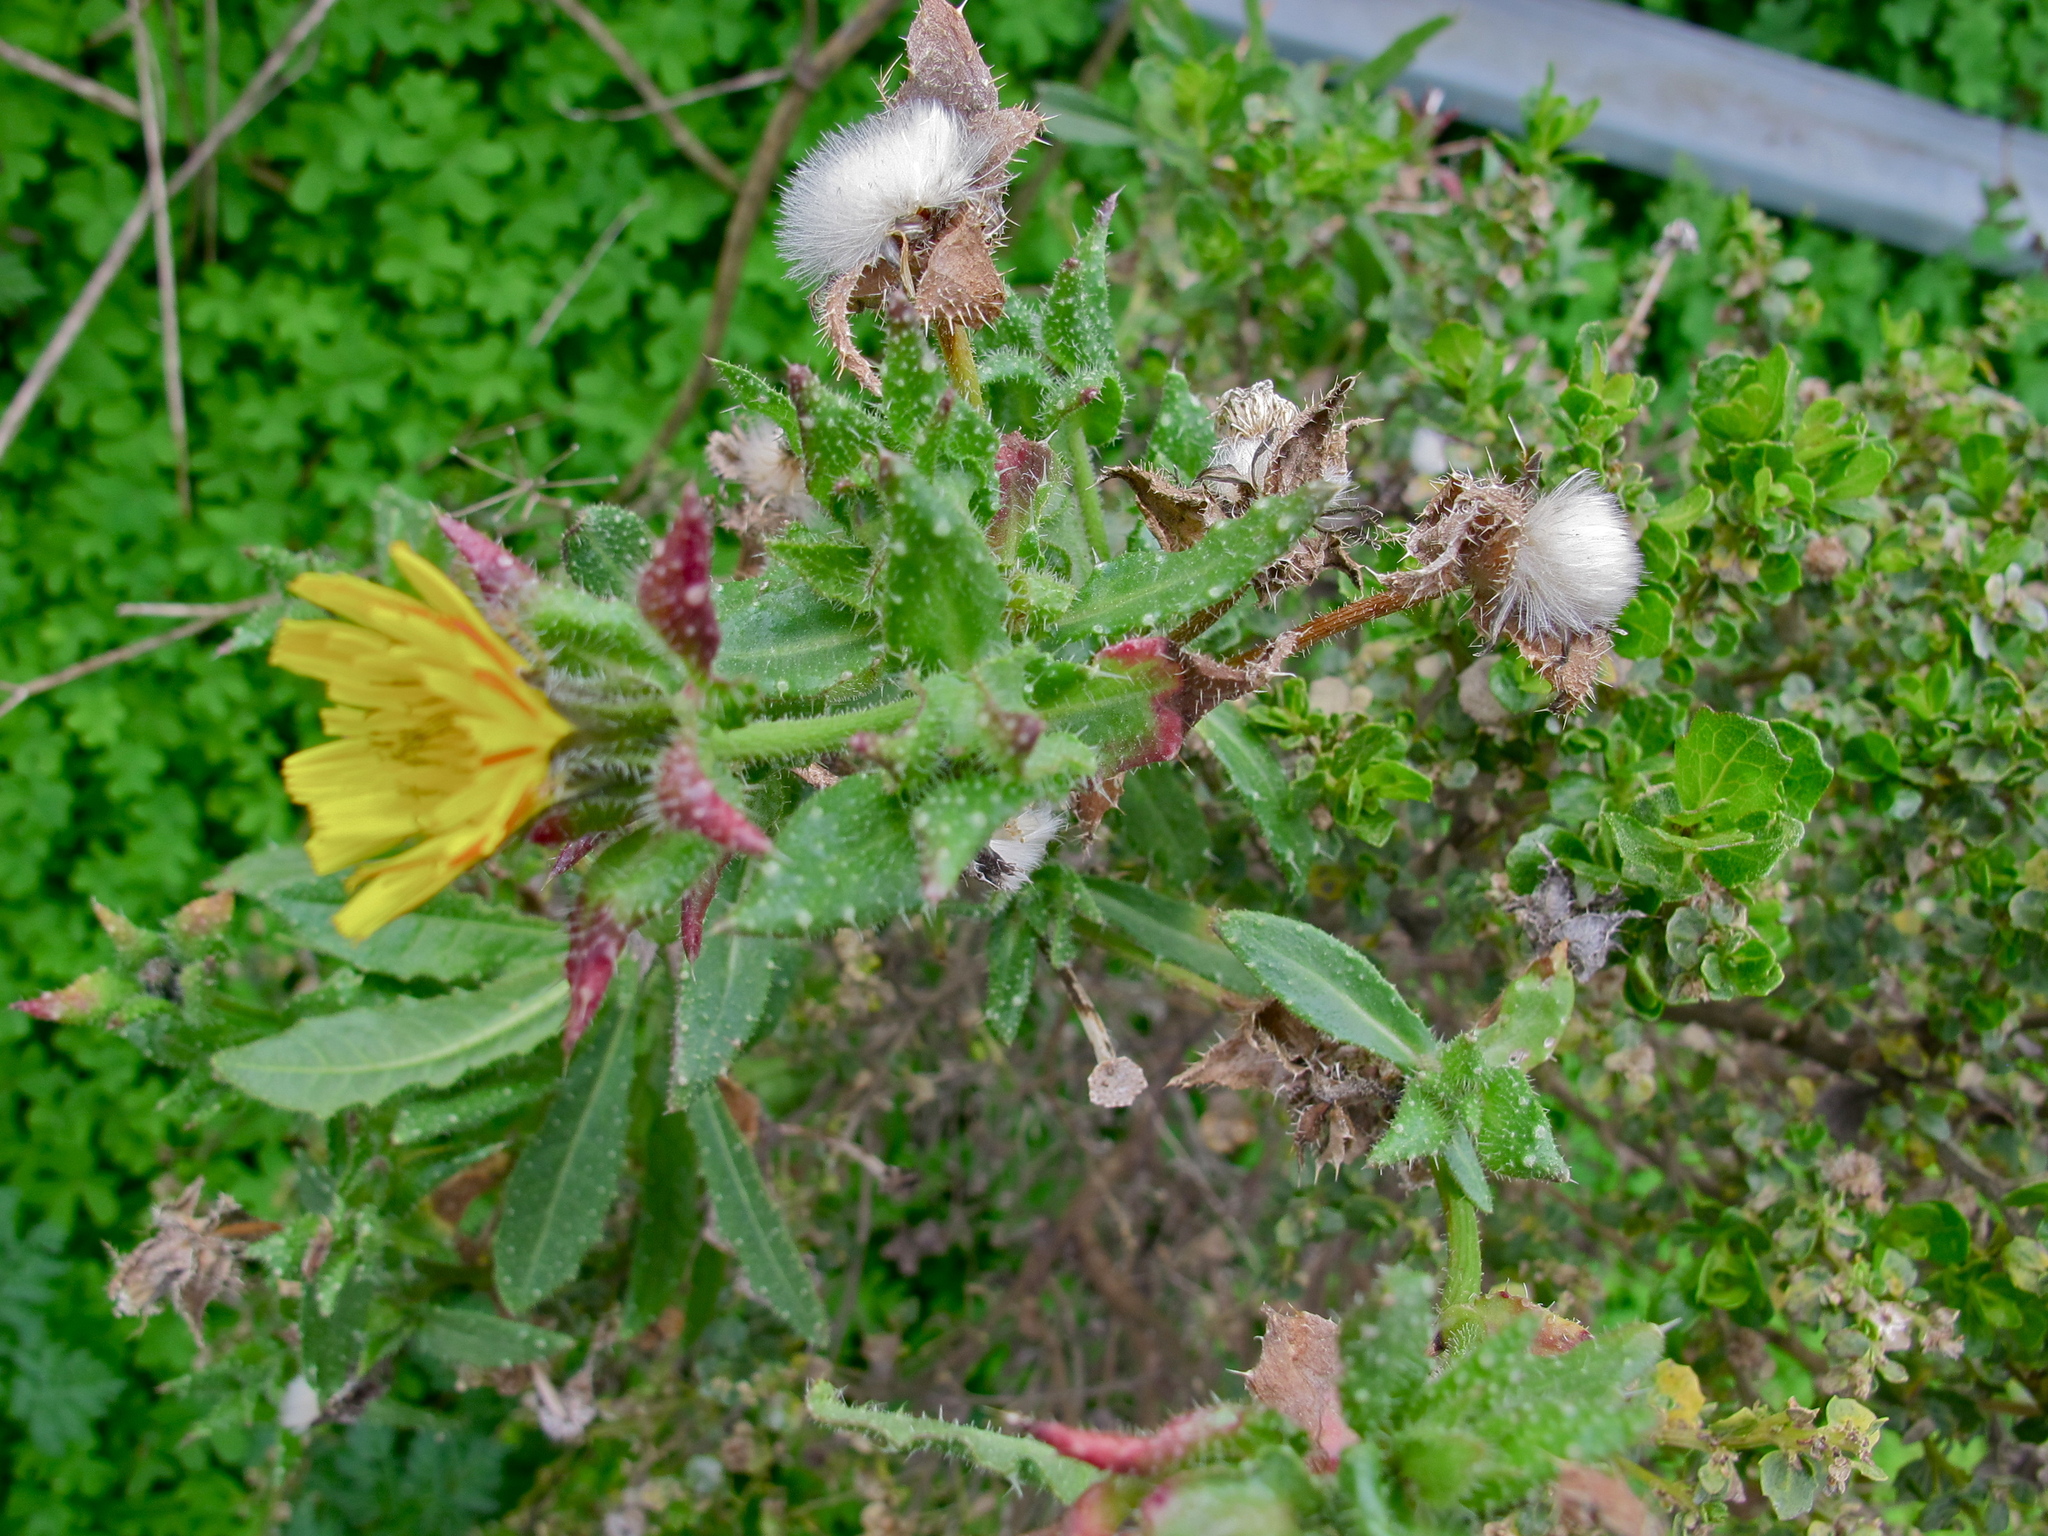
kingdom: Plantae
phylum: Tracheophyta
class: Magnoliopsida
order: Asterales
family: Asteraceae
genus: Helminthotheca
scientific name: Helminthotheca echioides
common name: Ox-tongue
